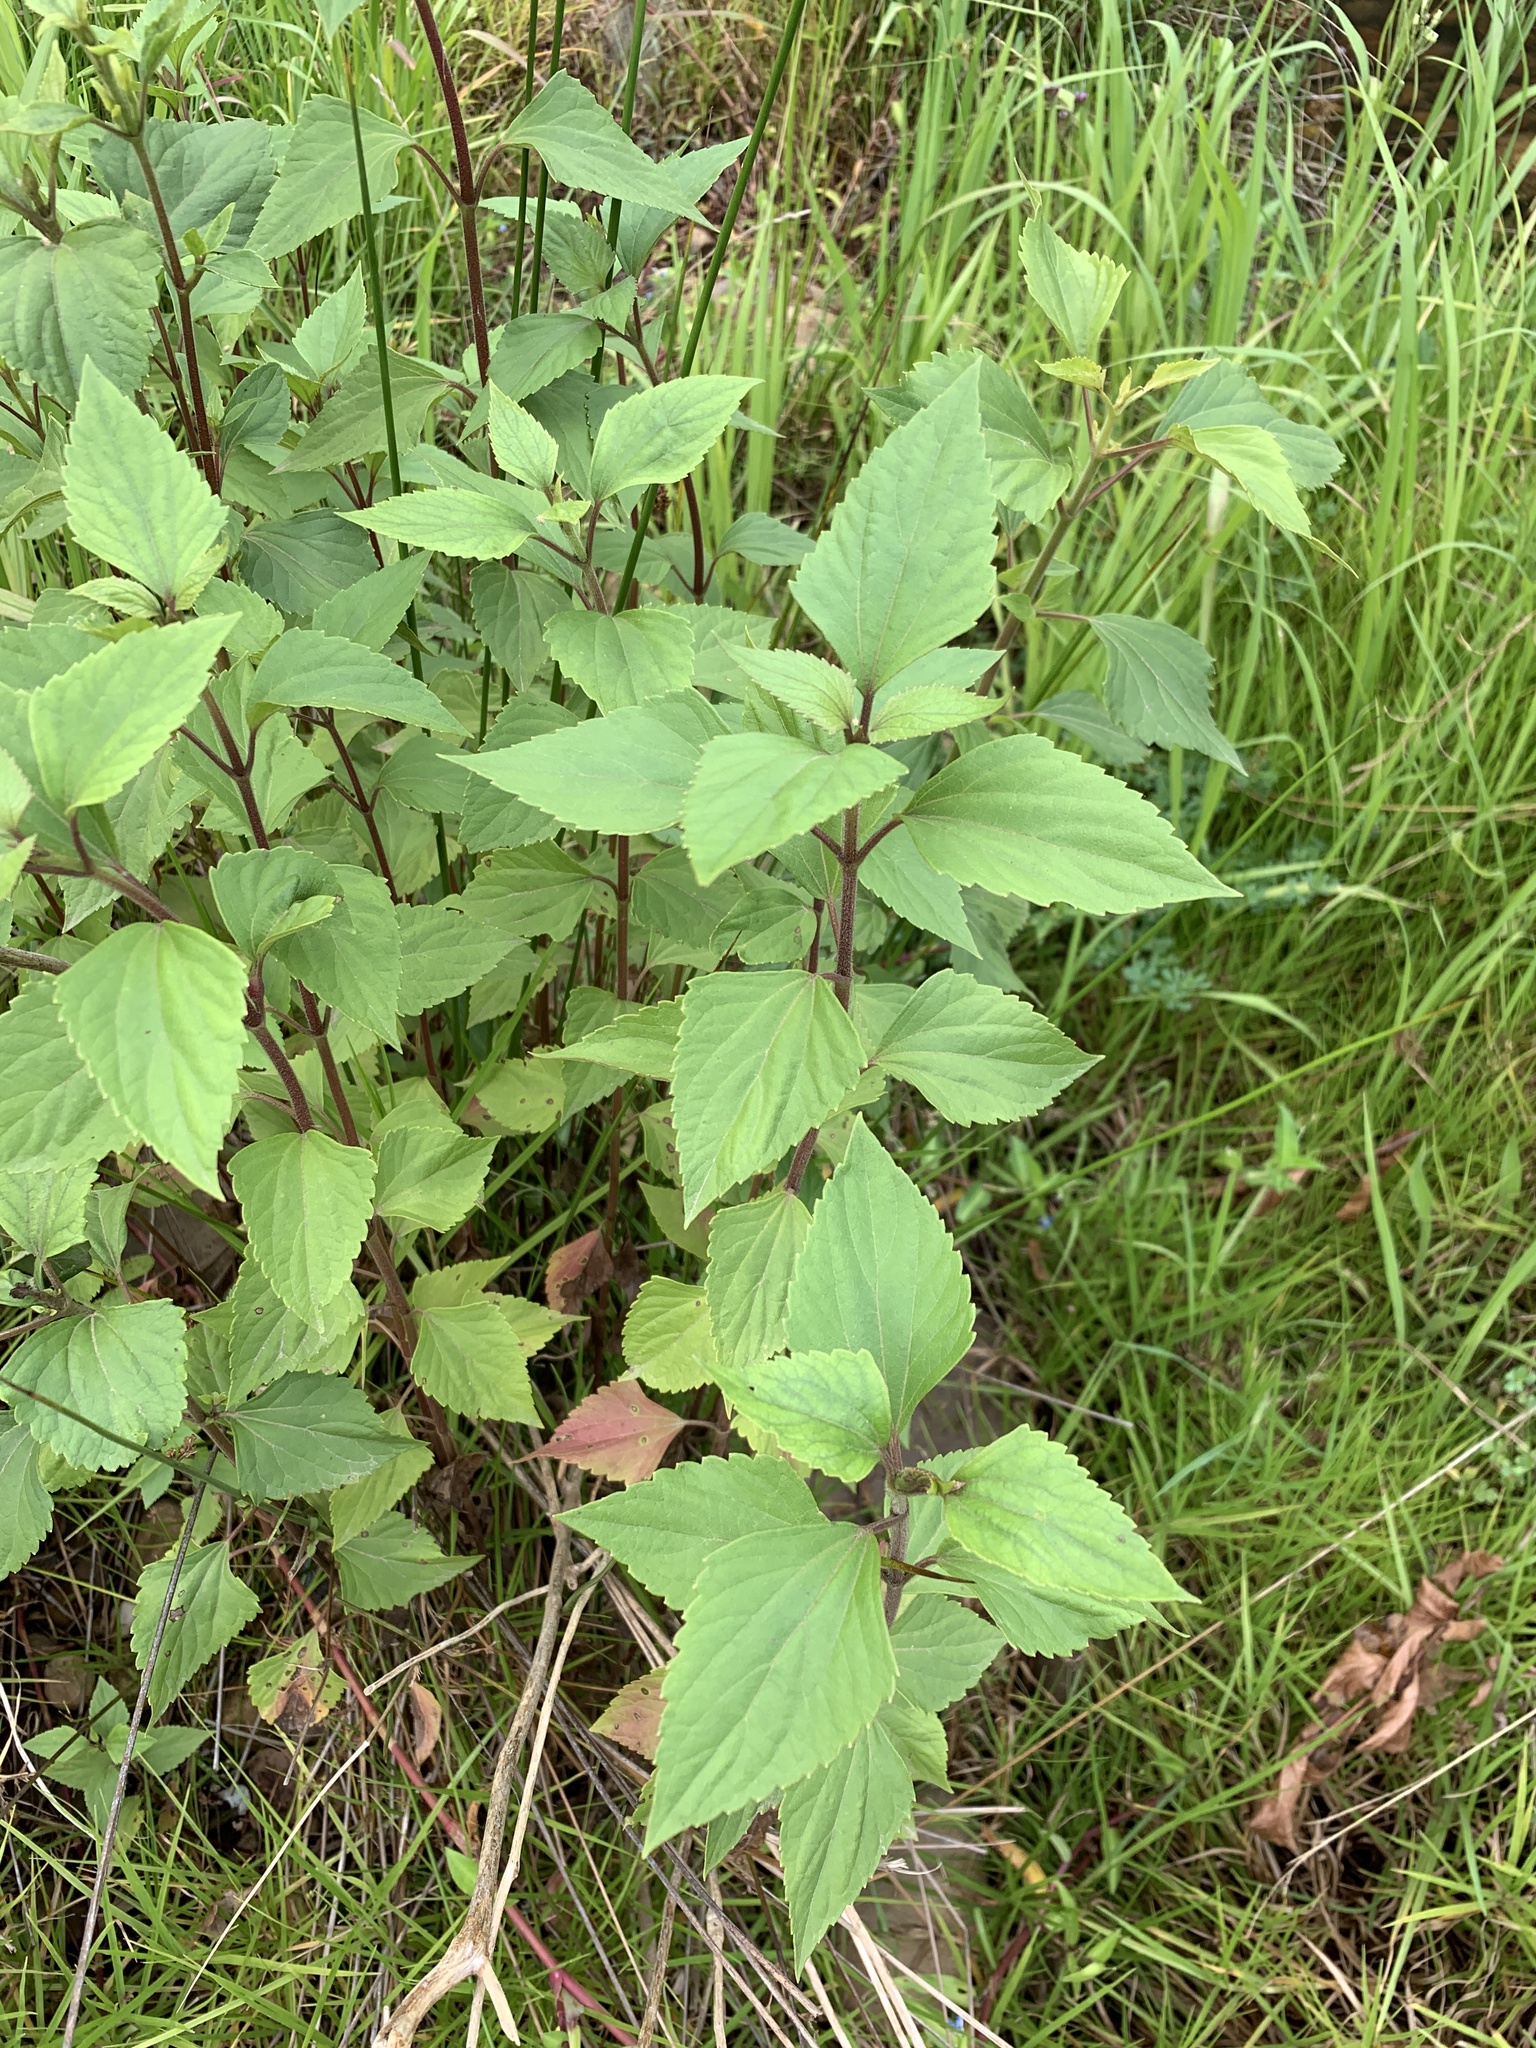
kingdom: Plantae
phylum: Tracheophyta
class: Magnoliopsida
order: Asterales
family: Asteraceae
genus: Ageratina
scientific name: Ageratina adenophora
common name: Sticky snakeroot
